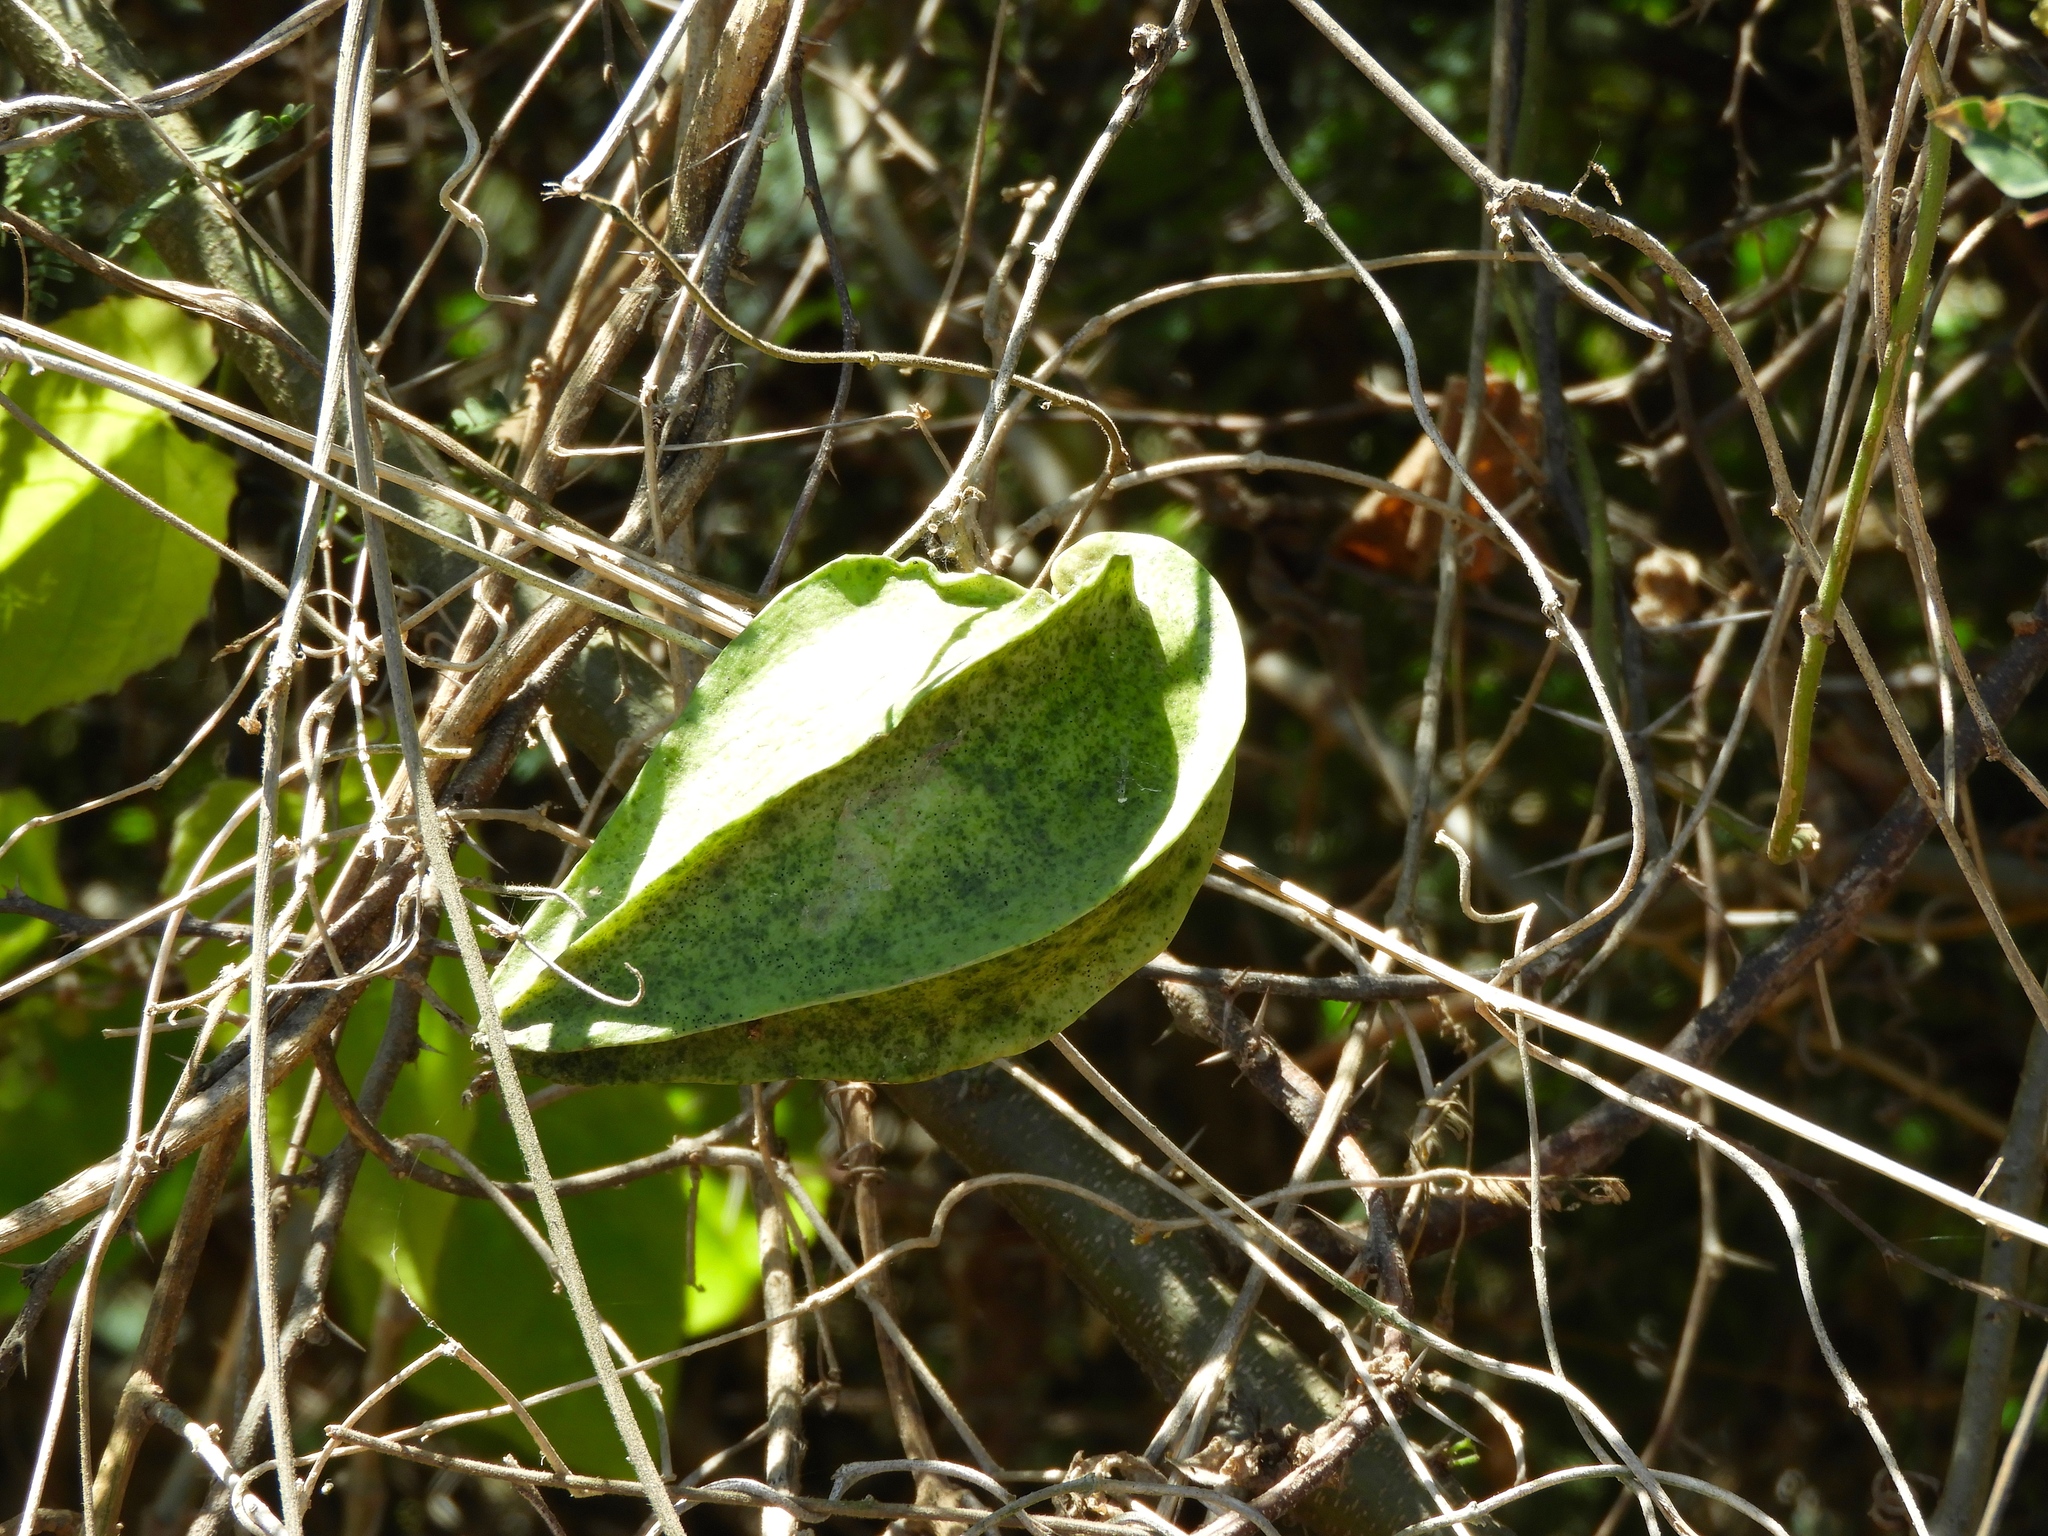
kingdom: Plantae
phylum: Tracheophyta
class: Magnoliopsida
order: Gentianales
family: Apocynaceae
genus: Gonolobus
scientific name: Gonolobus naturalistae
